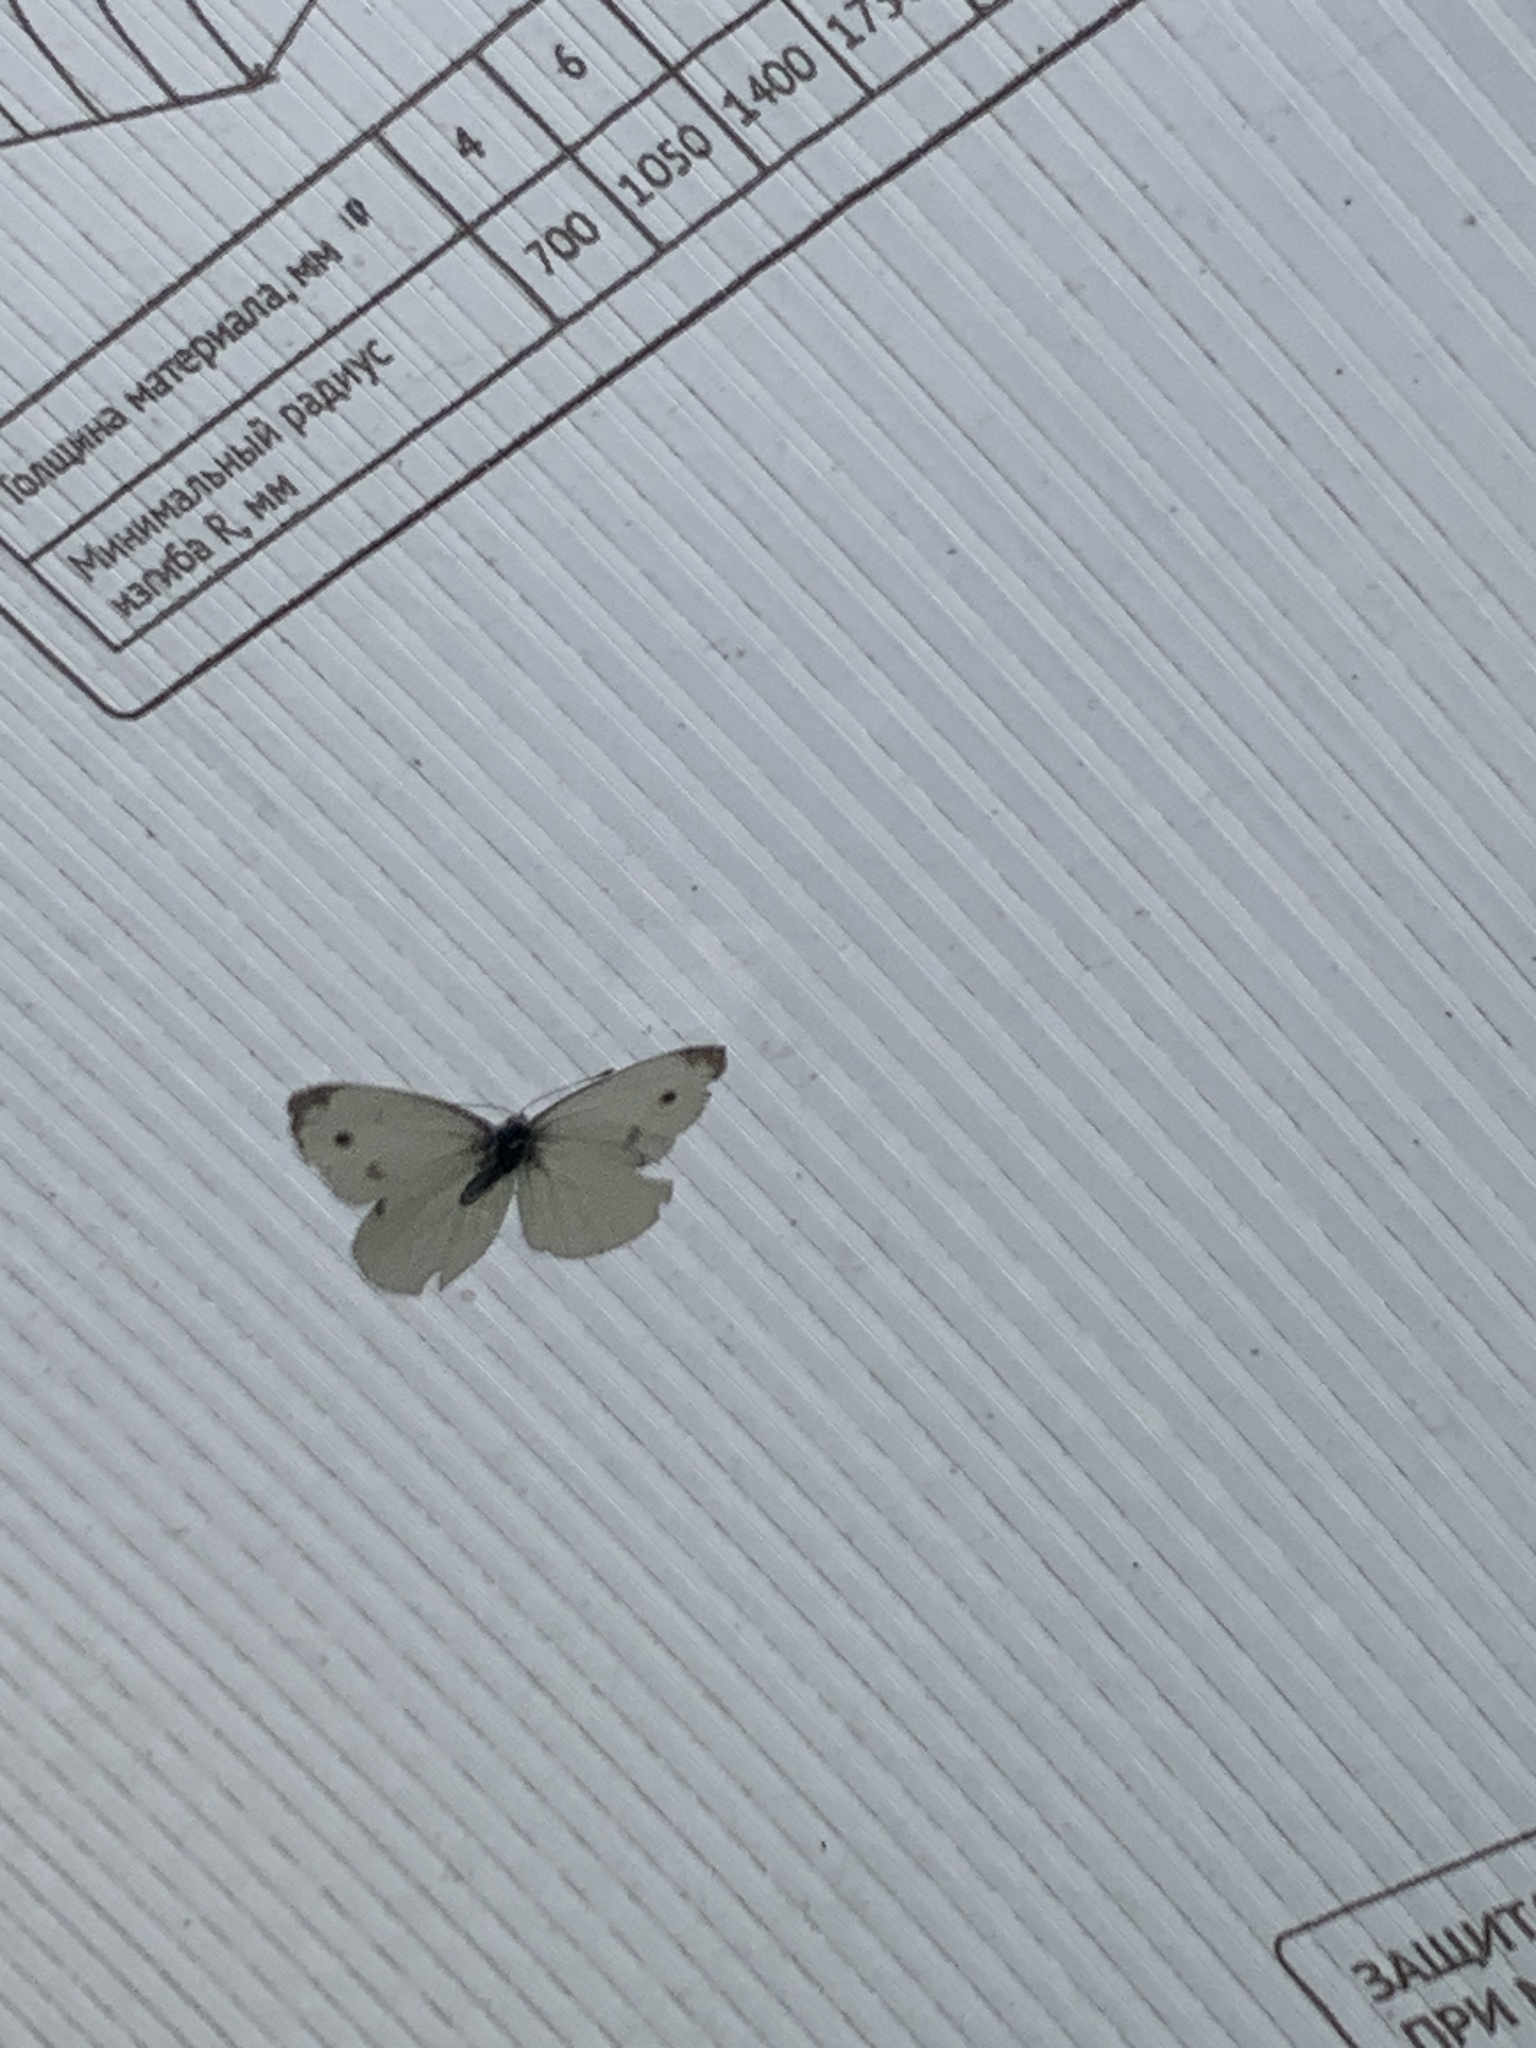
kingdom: Animalia
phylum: Arthropoda
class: Insecta
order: Lepidoptera
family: Pieridae
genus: Pieris
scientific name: Pieris rapae
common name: Small white
